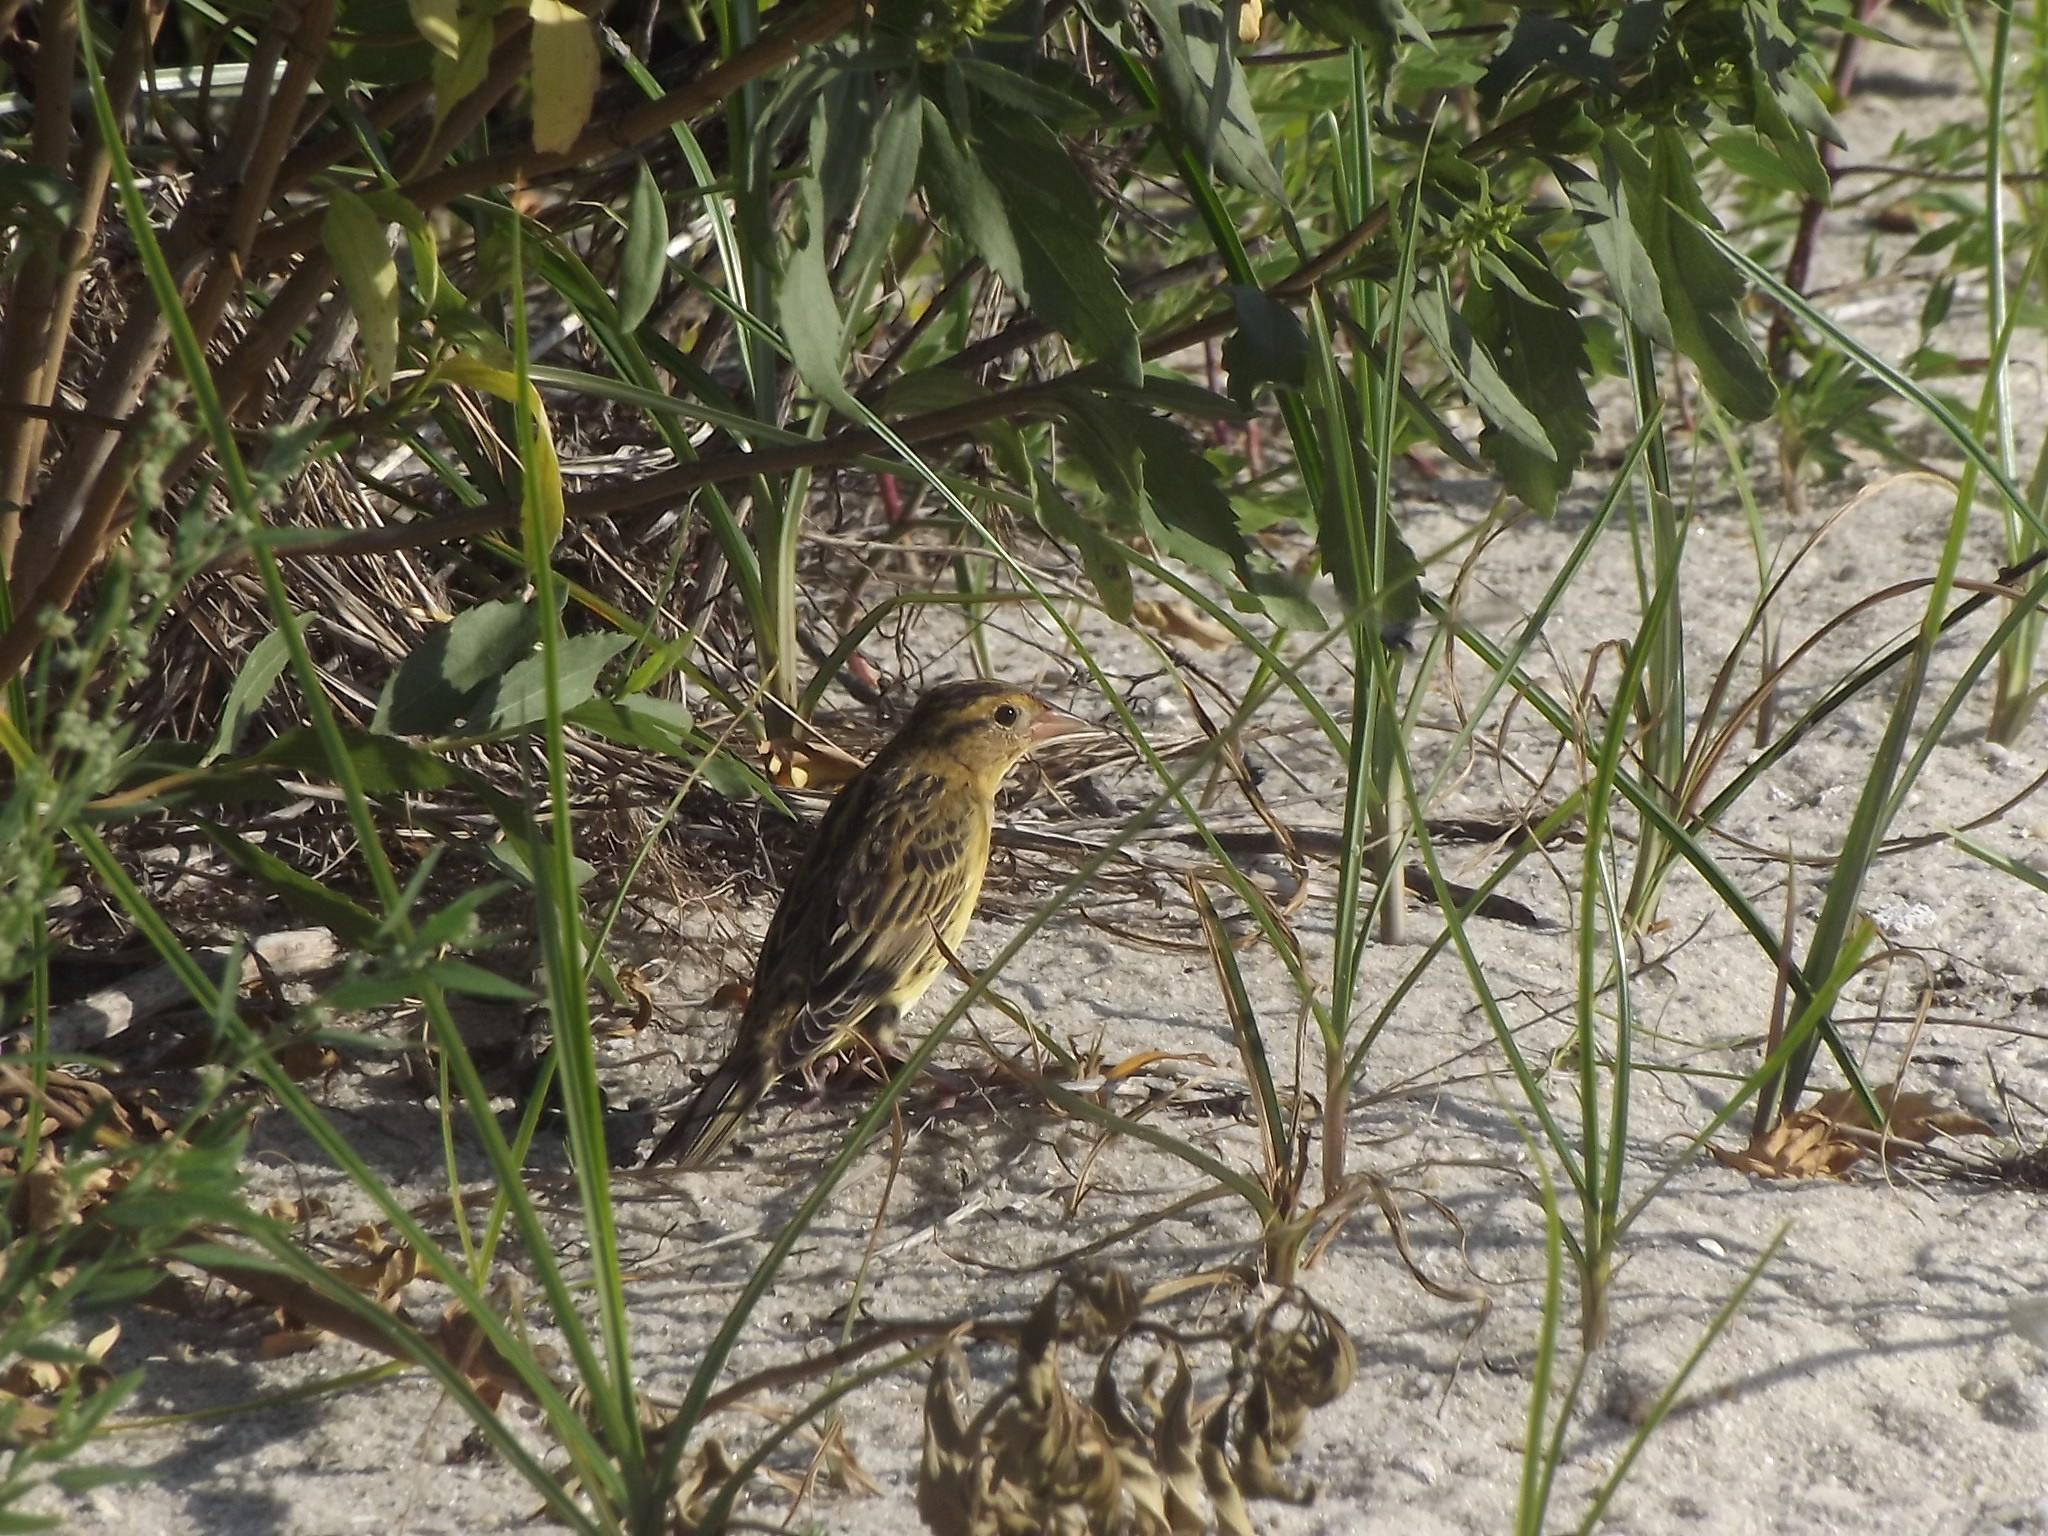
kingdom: Animalia
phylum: Chordata
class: Aves
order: Passeriformes
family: Icteridae
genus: Dolichonyx
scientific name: Dolichonyx oryzivorus
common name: Bobolink
